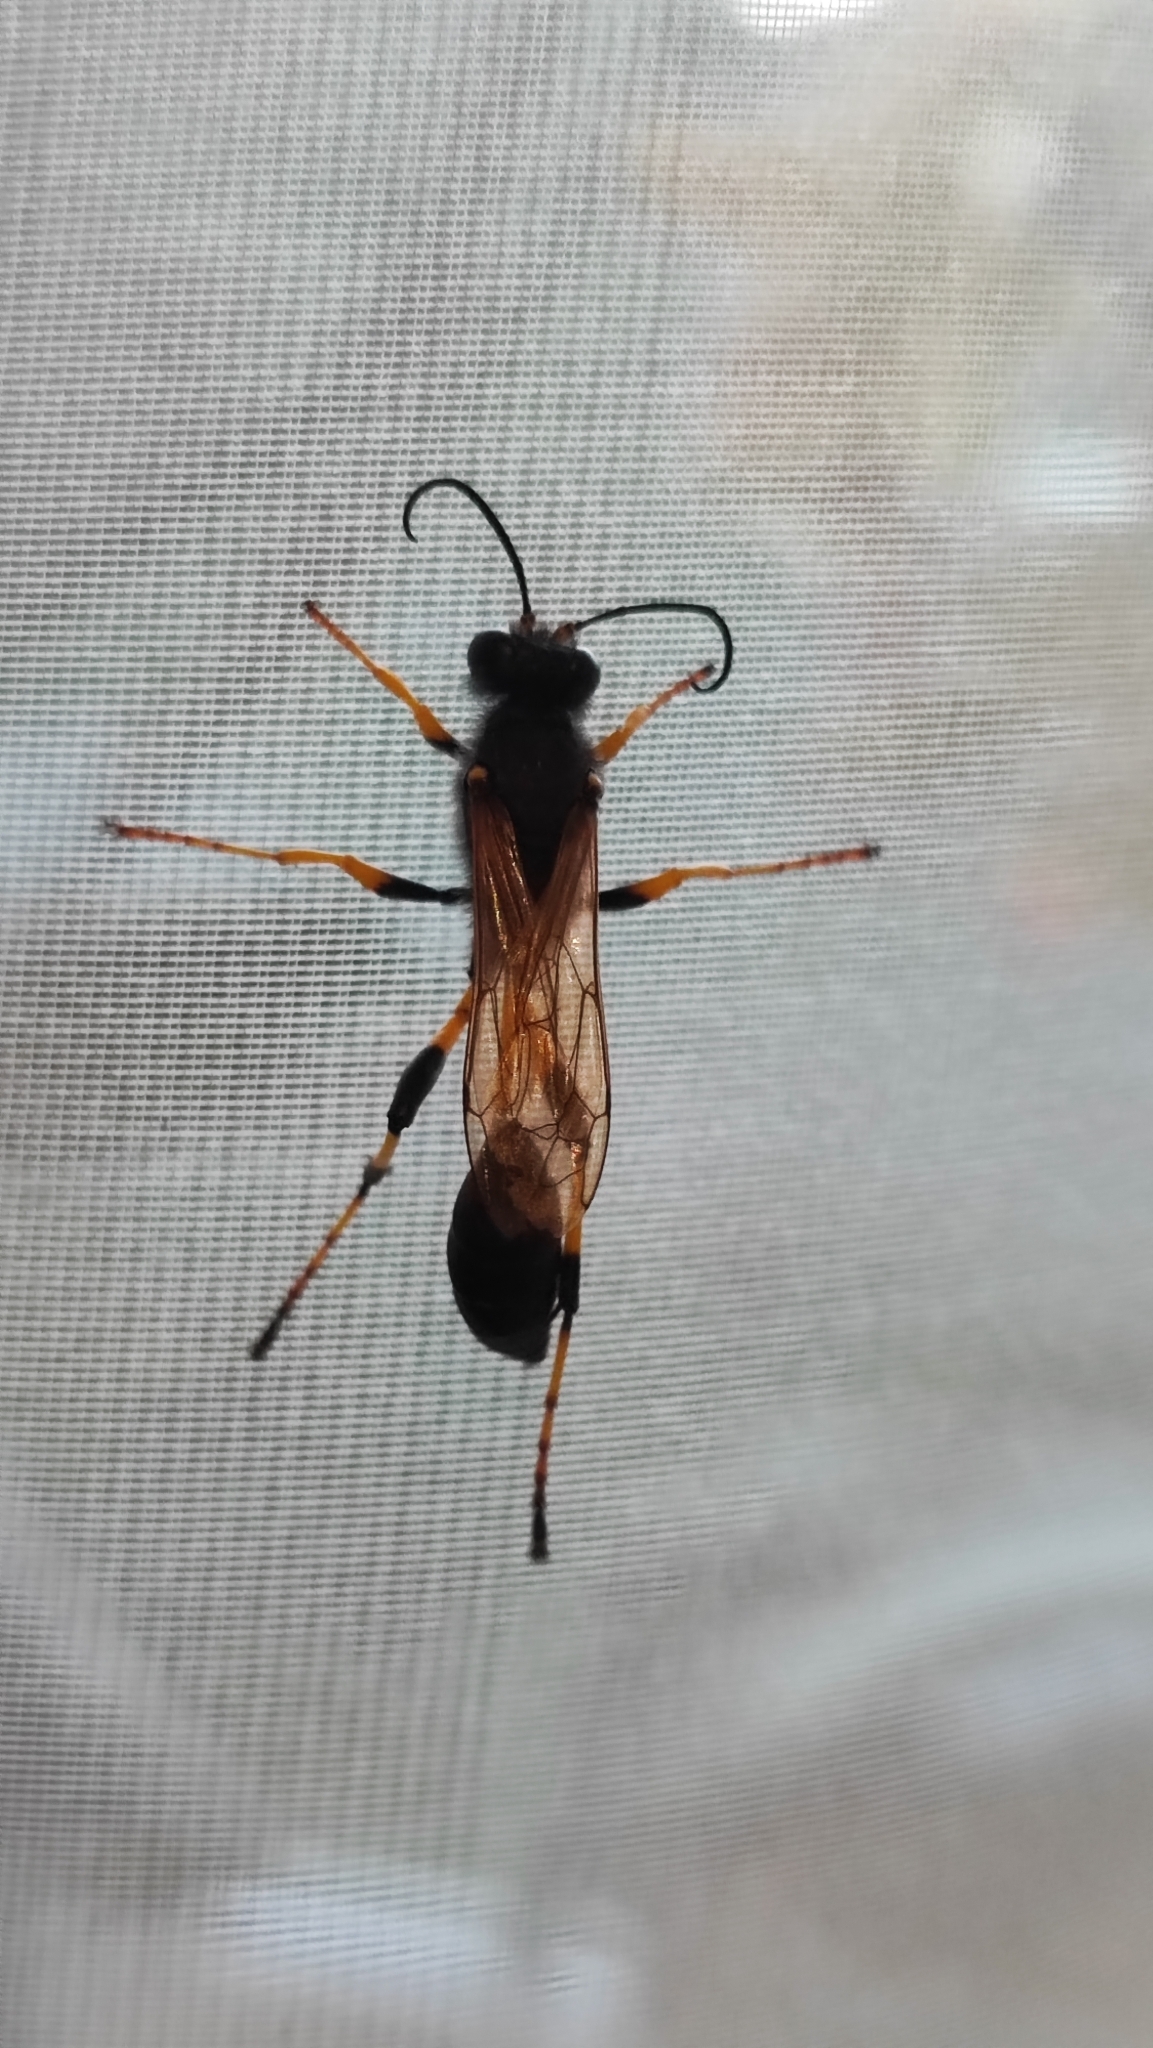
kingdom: Animalia
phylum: Arthropoda
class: Insecta
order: Hymenoptera
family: Sphecidae
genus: Sceliphron
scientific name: Sceliphron destillatorium
